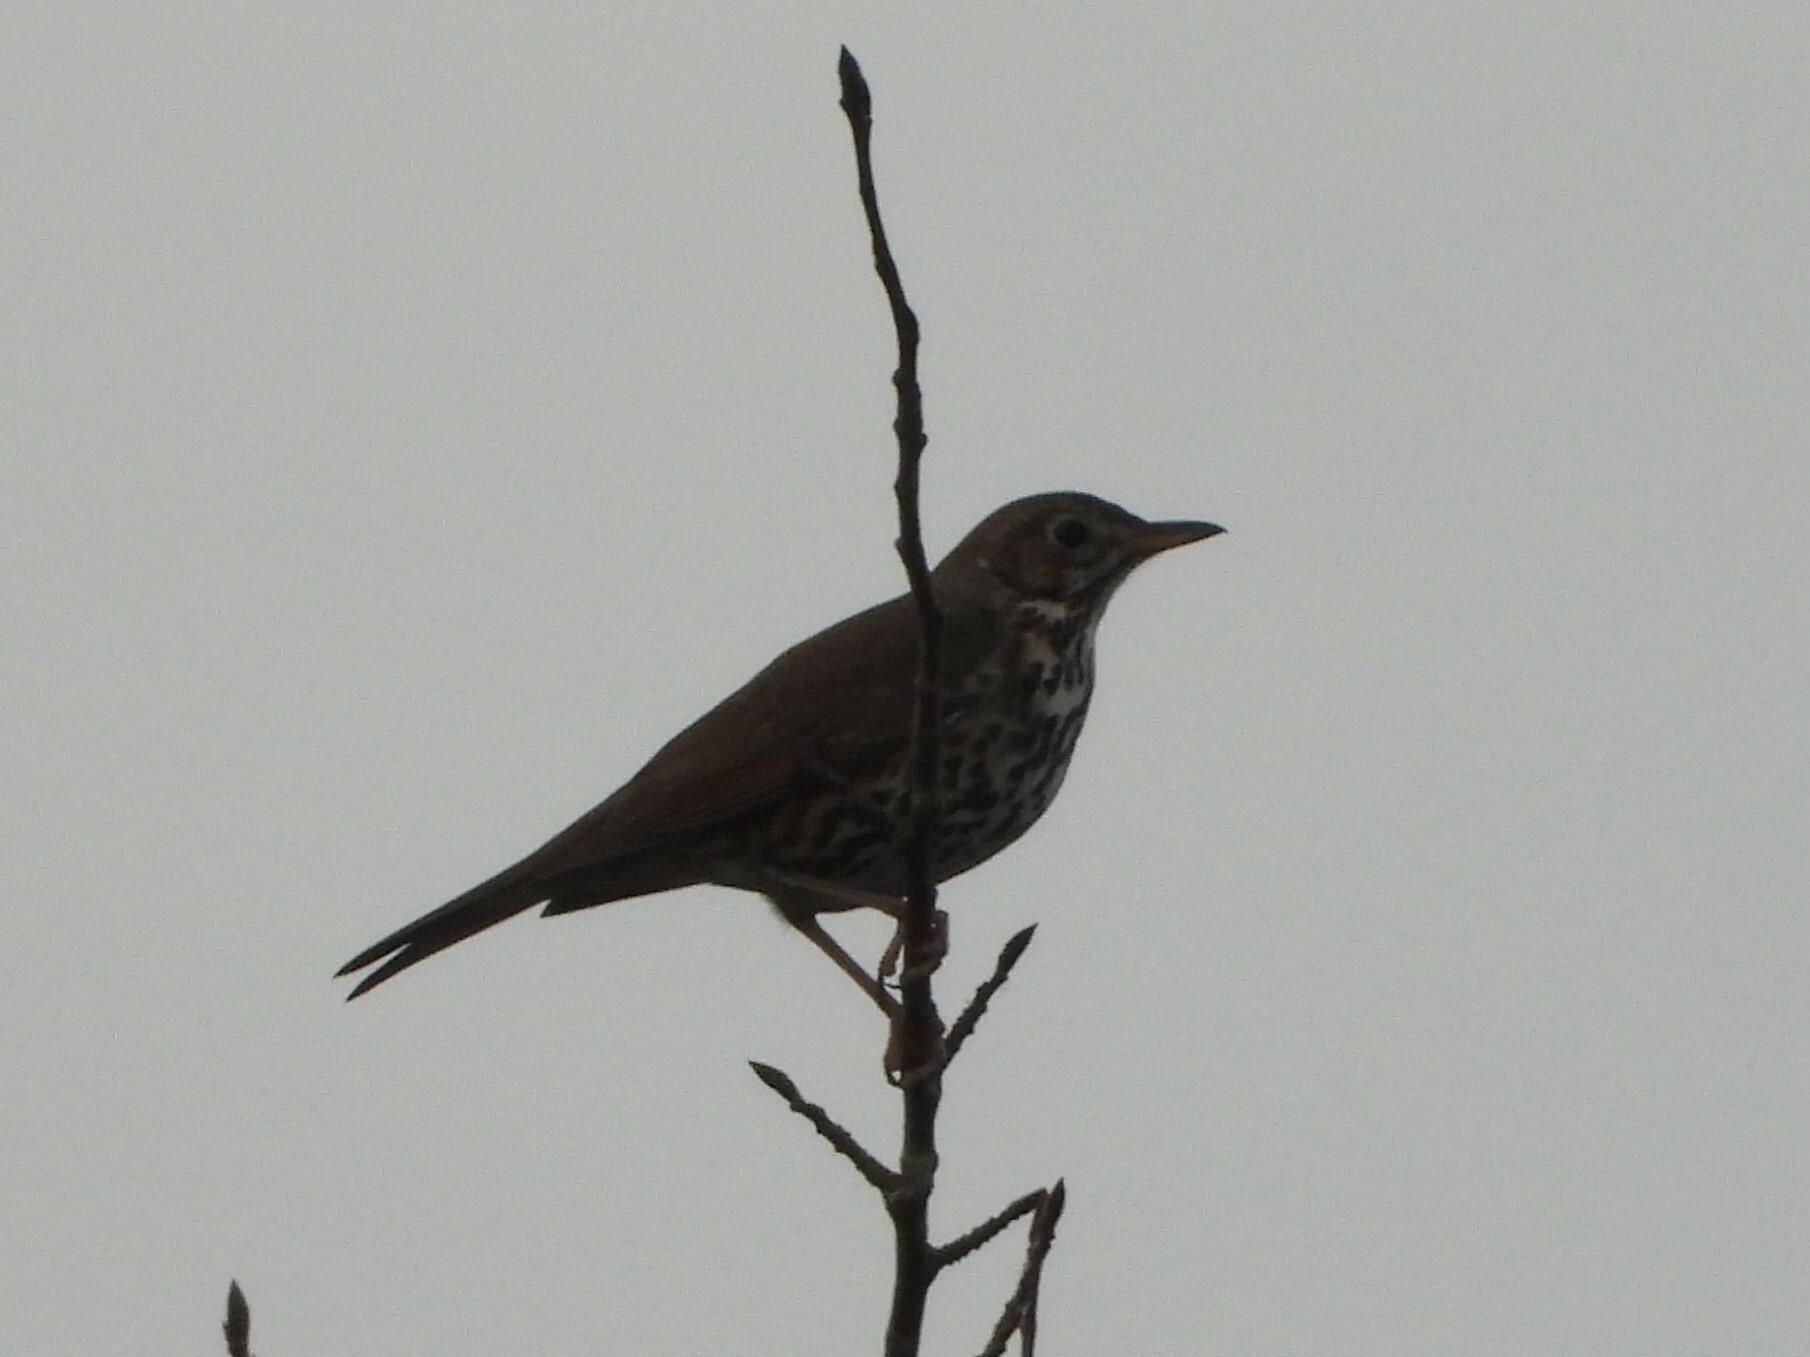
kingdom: Animalia
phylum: Chordata
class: Aves
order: Passeriformes
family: Turdidae
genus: Turdus
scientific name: Turdus philomelos
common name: Song thrush
